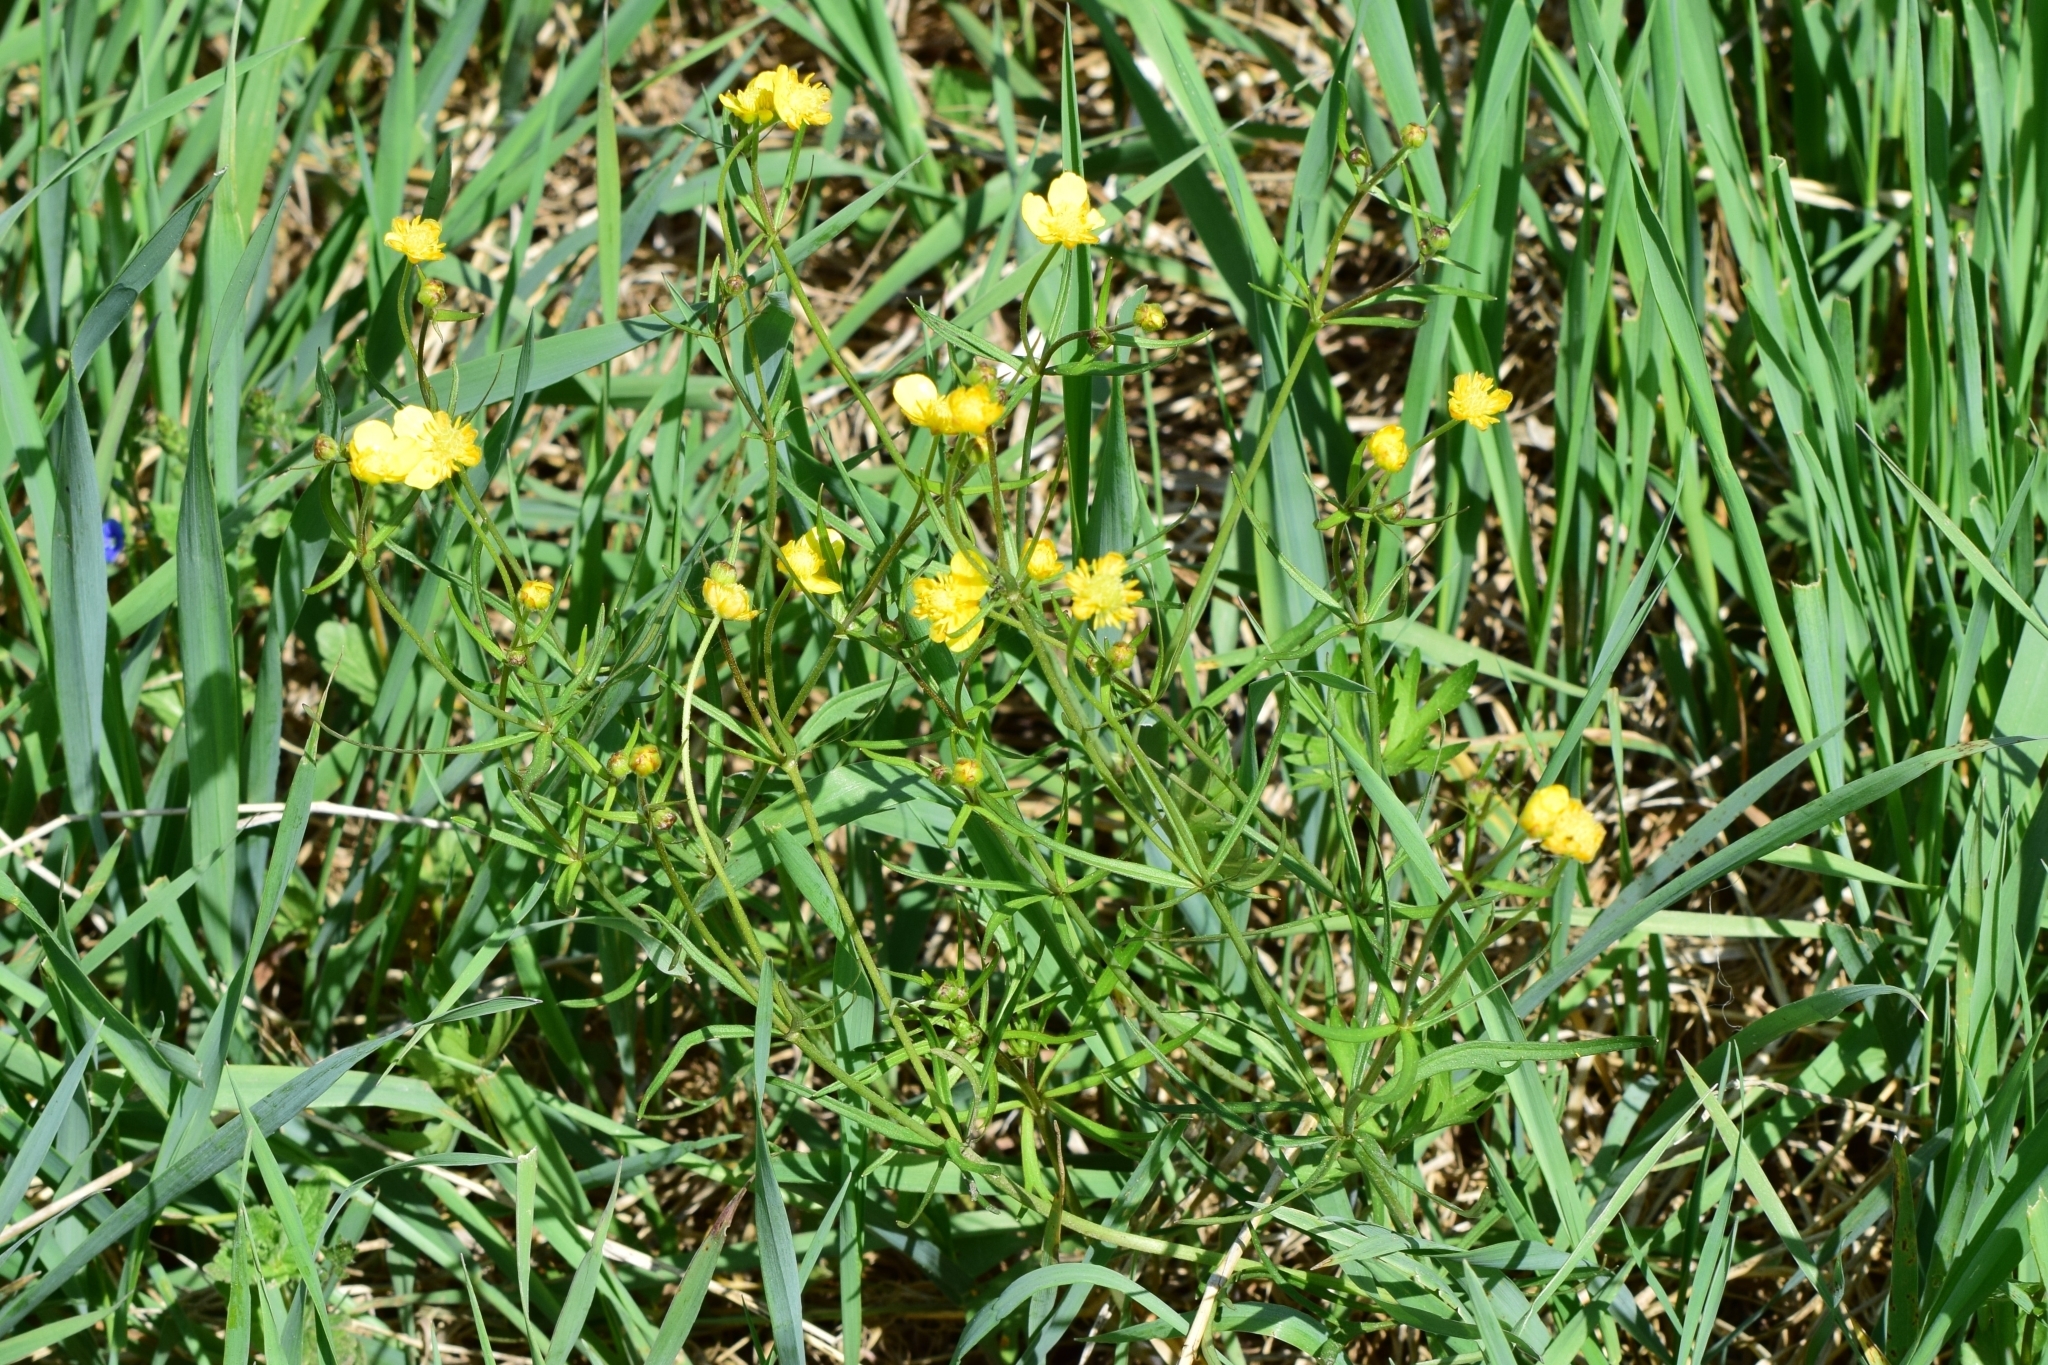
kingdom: Plantae
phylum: Tracheophyta
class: Magnoliopsida
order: Ranunculales
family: Ranunculaceae
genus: Ranunculus
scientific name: Ranunculus auricomus
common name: Goldilocks buttercup
